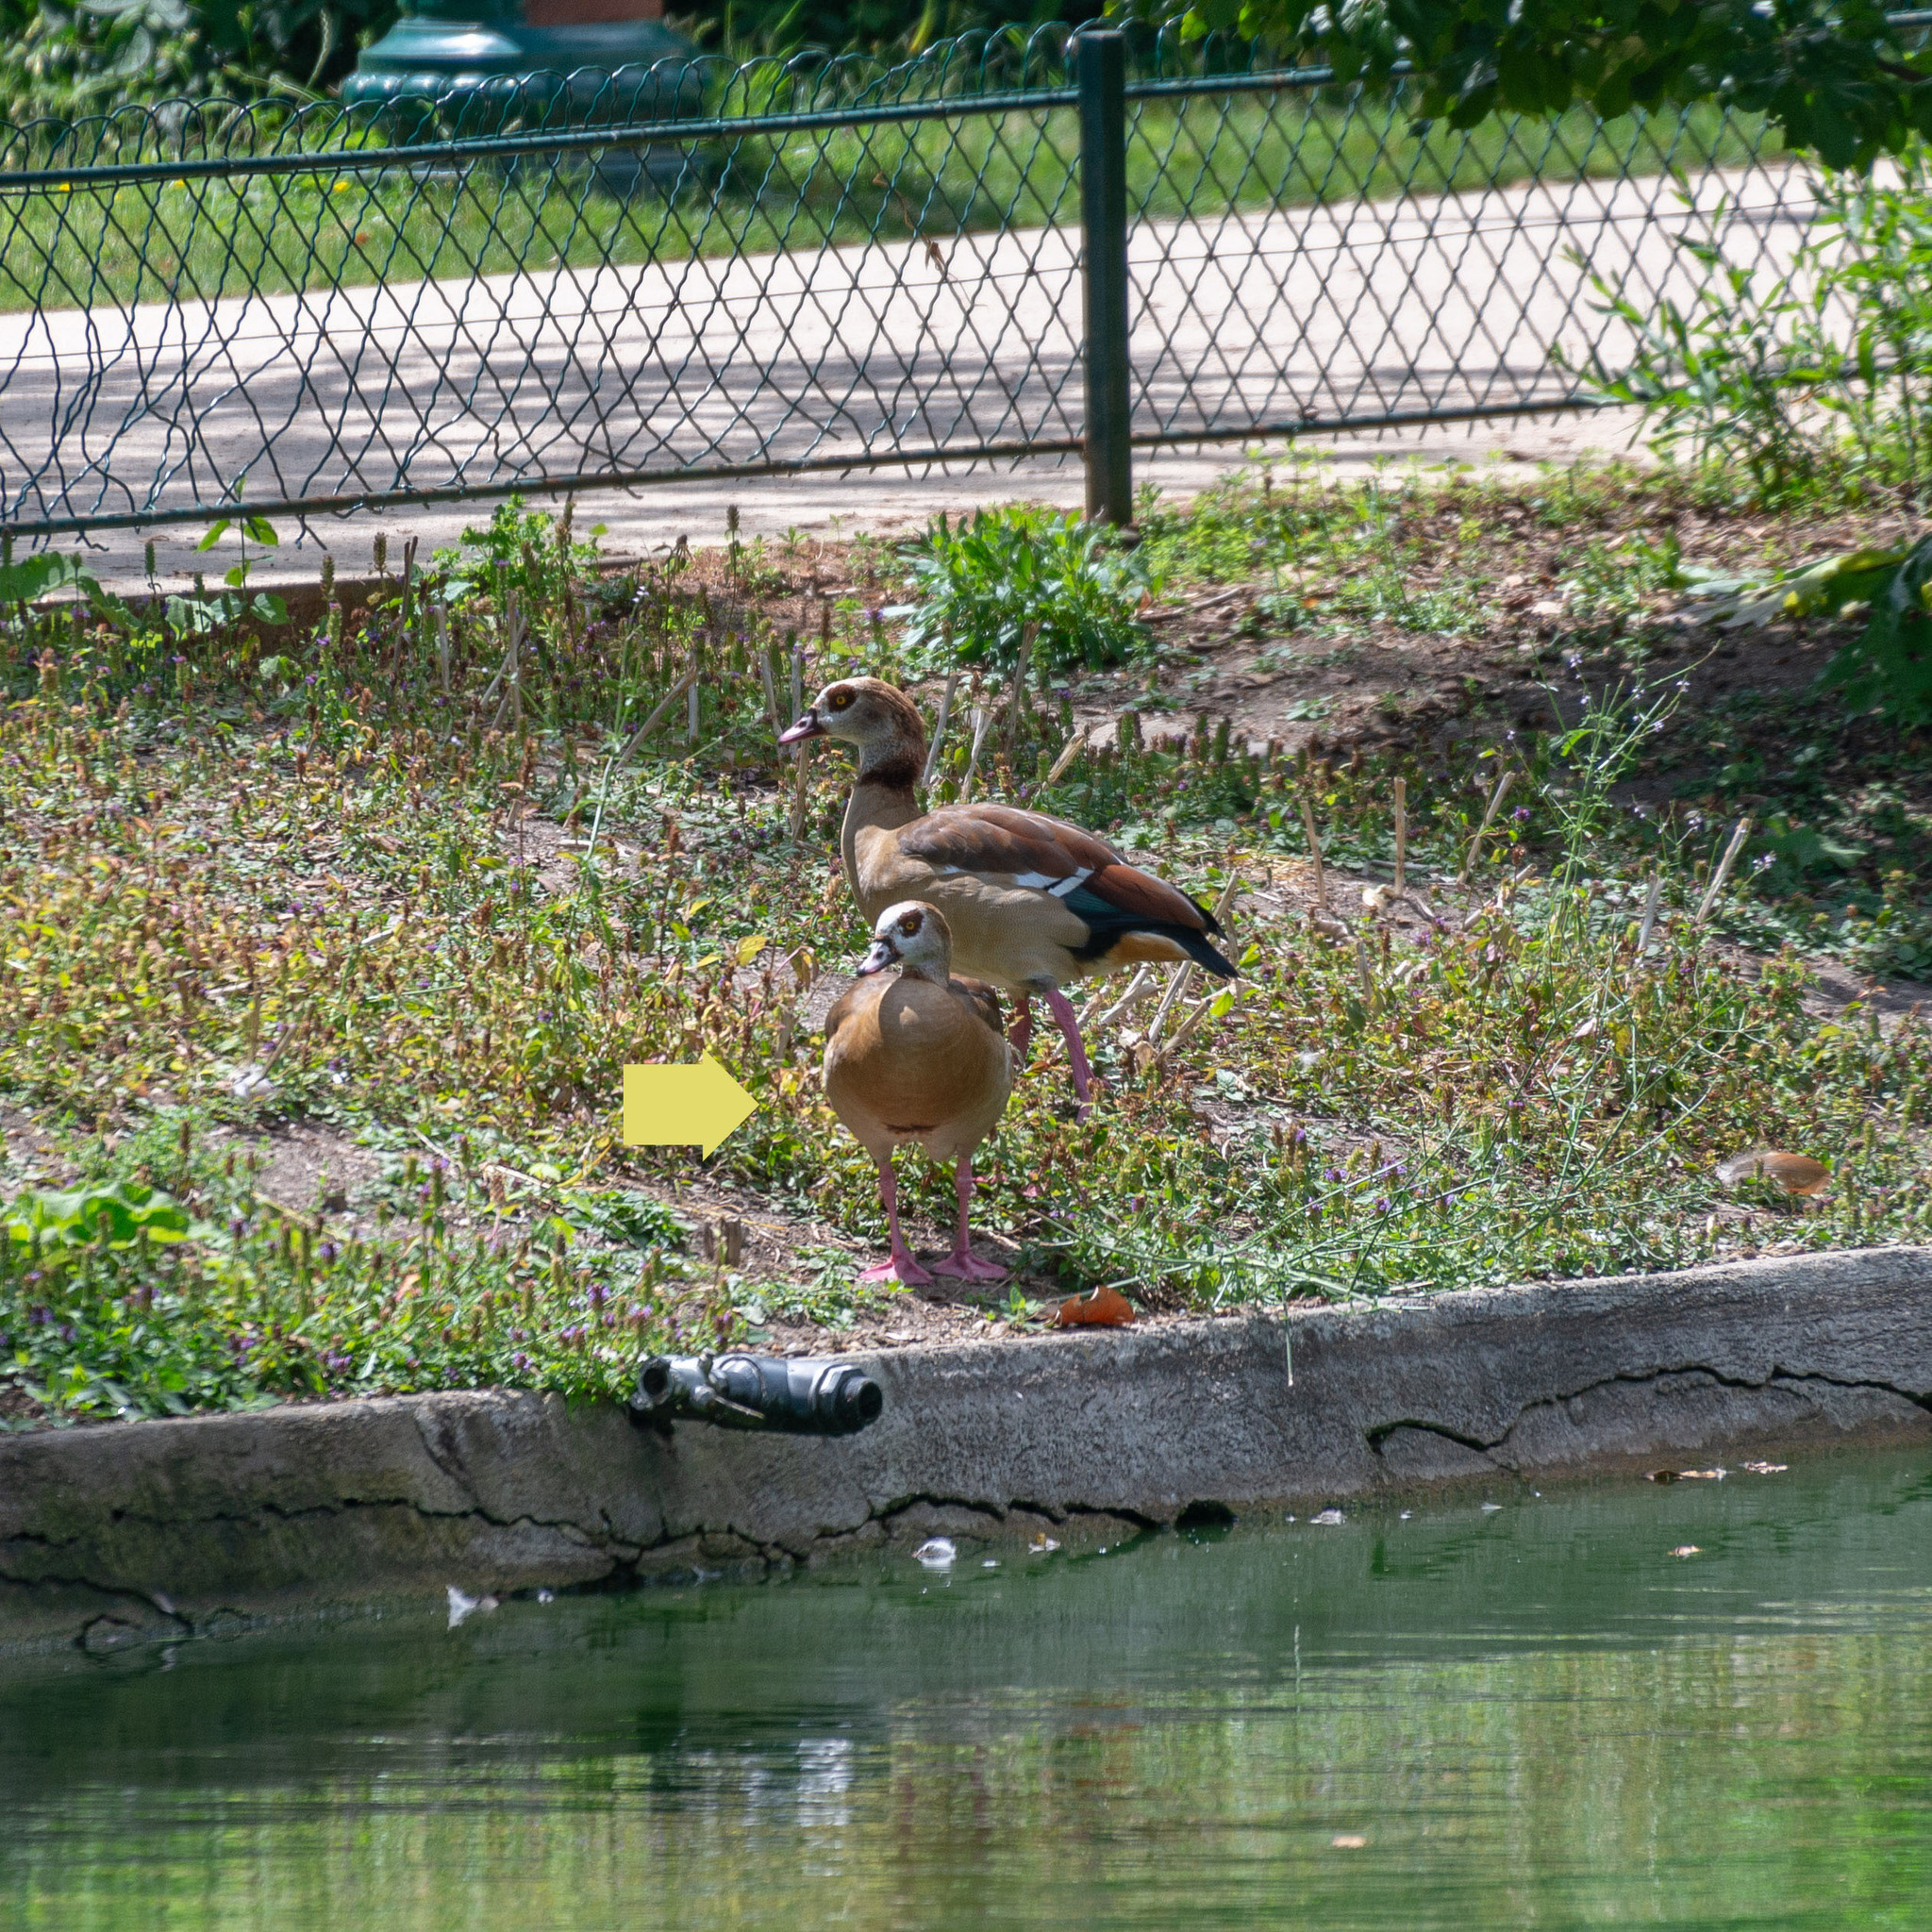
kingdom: Animalia
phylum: Chordata
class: Aves
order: Anseriformes
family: Anatidae
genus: Alopochen
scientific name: Alopochen aegyptiaca
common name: Egyptian goose
